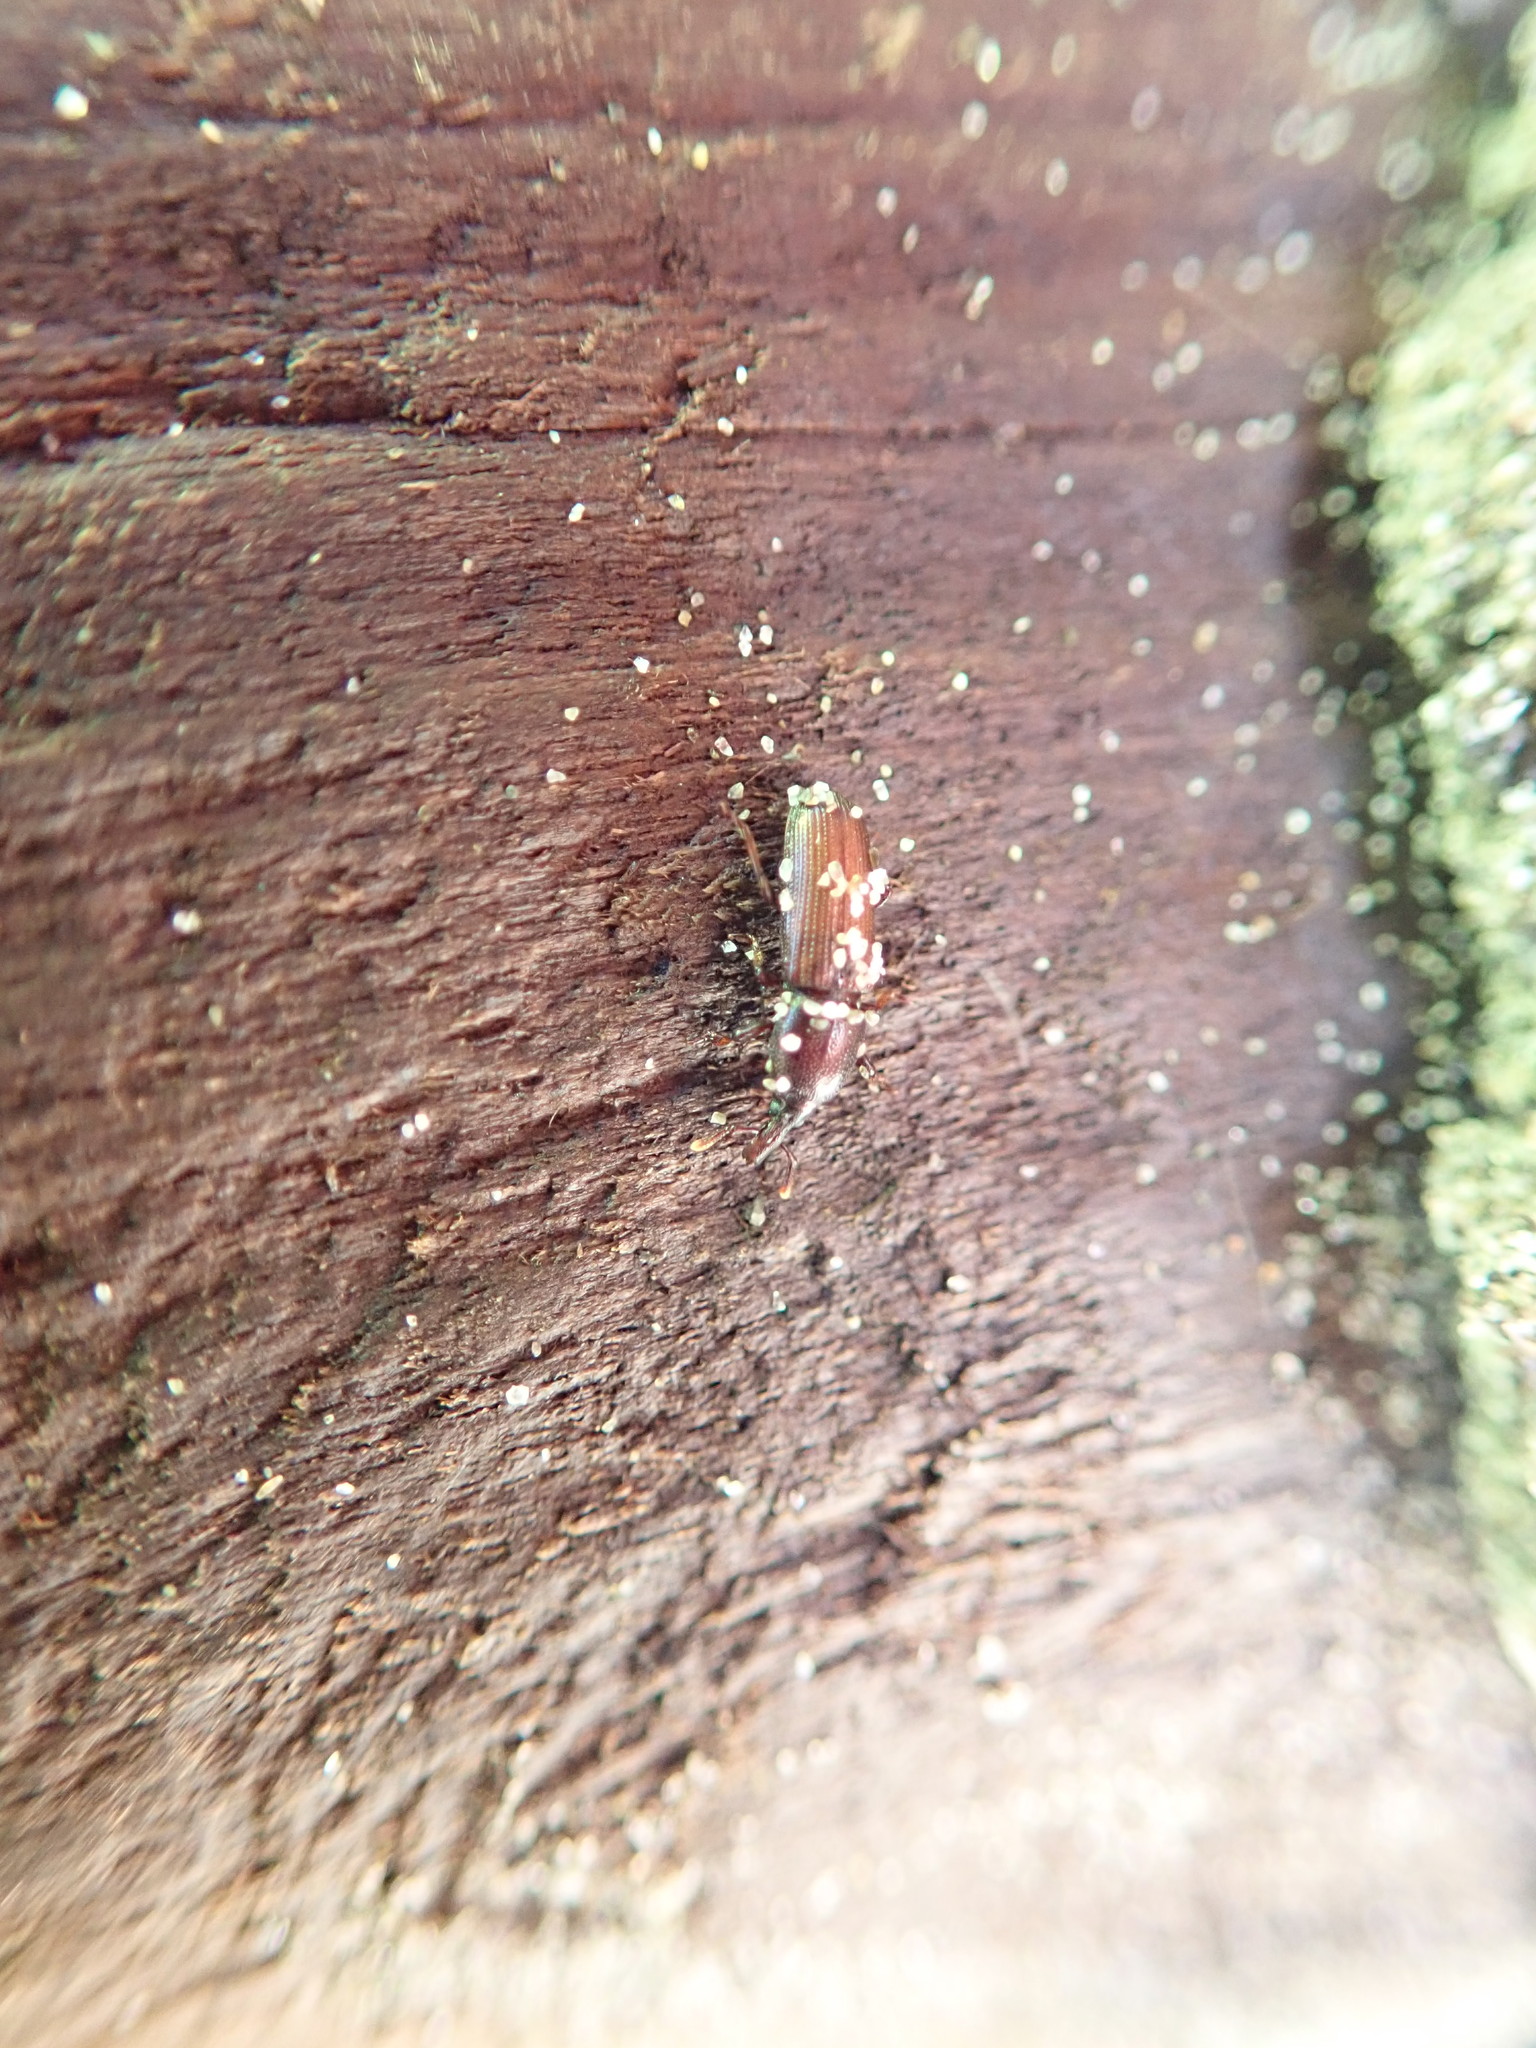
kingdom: Animalia
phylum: Arthropoda
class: Insecta
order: Coleoptera
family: Curculionidae
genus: Mesites
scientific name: Mesites pallidipennis
